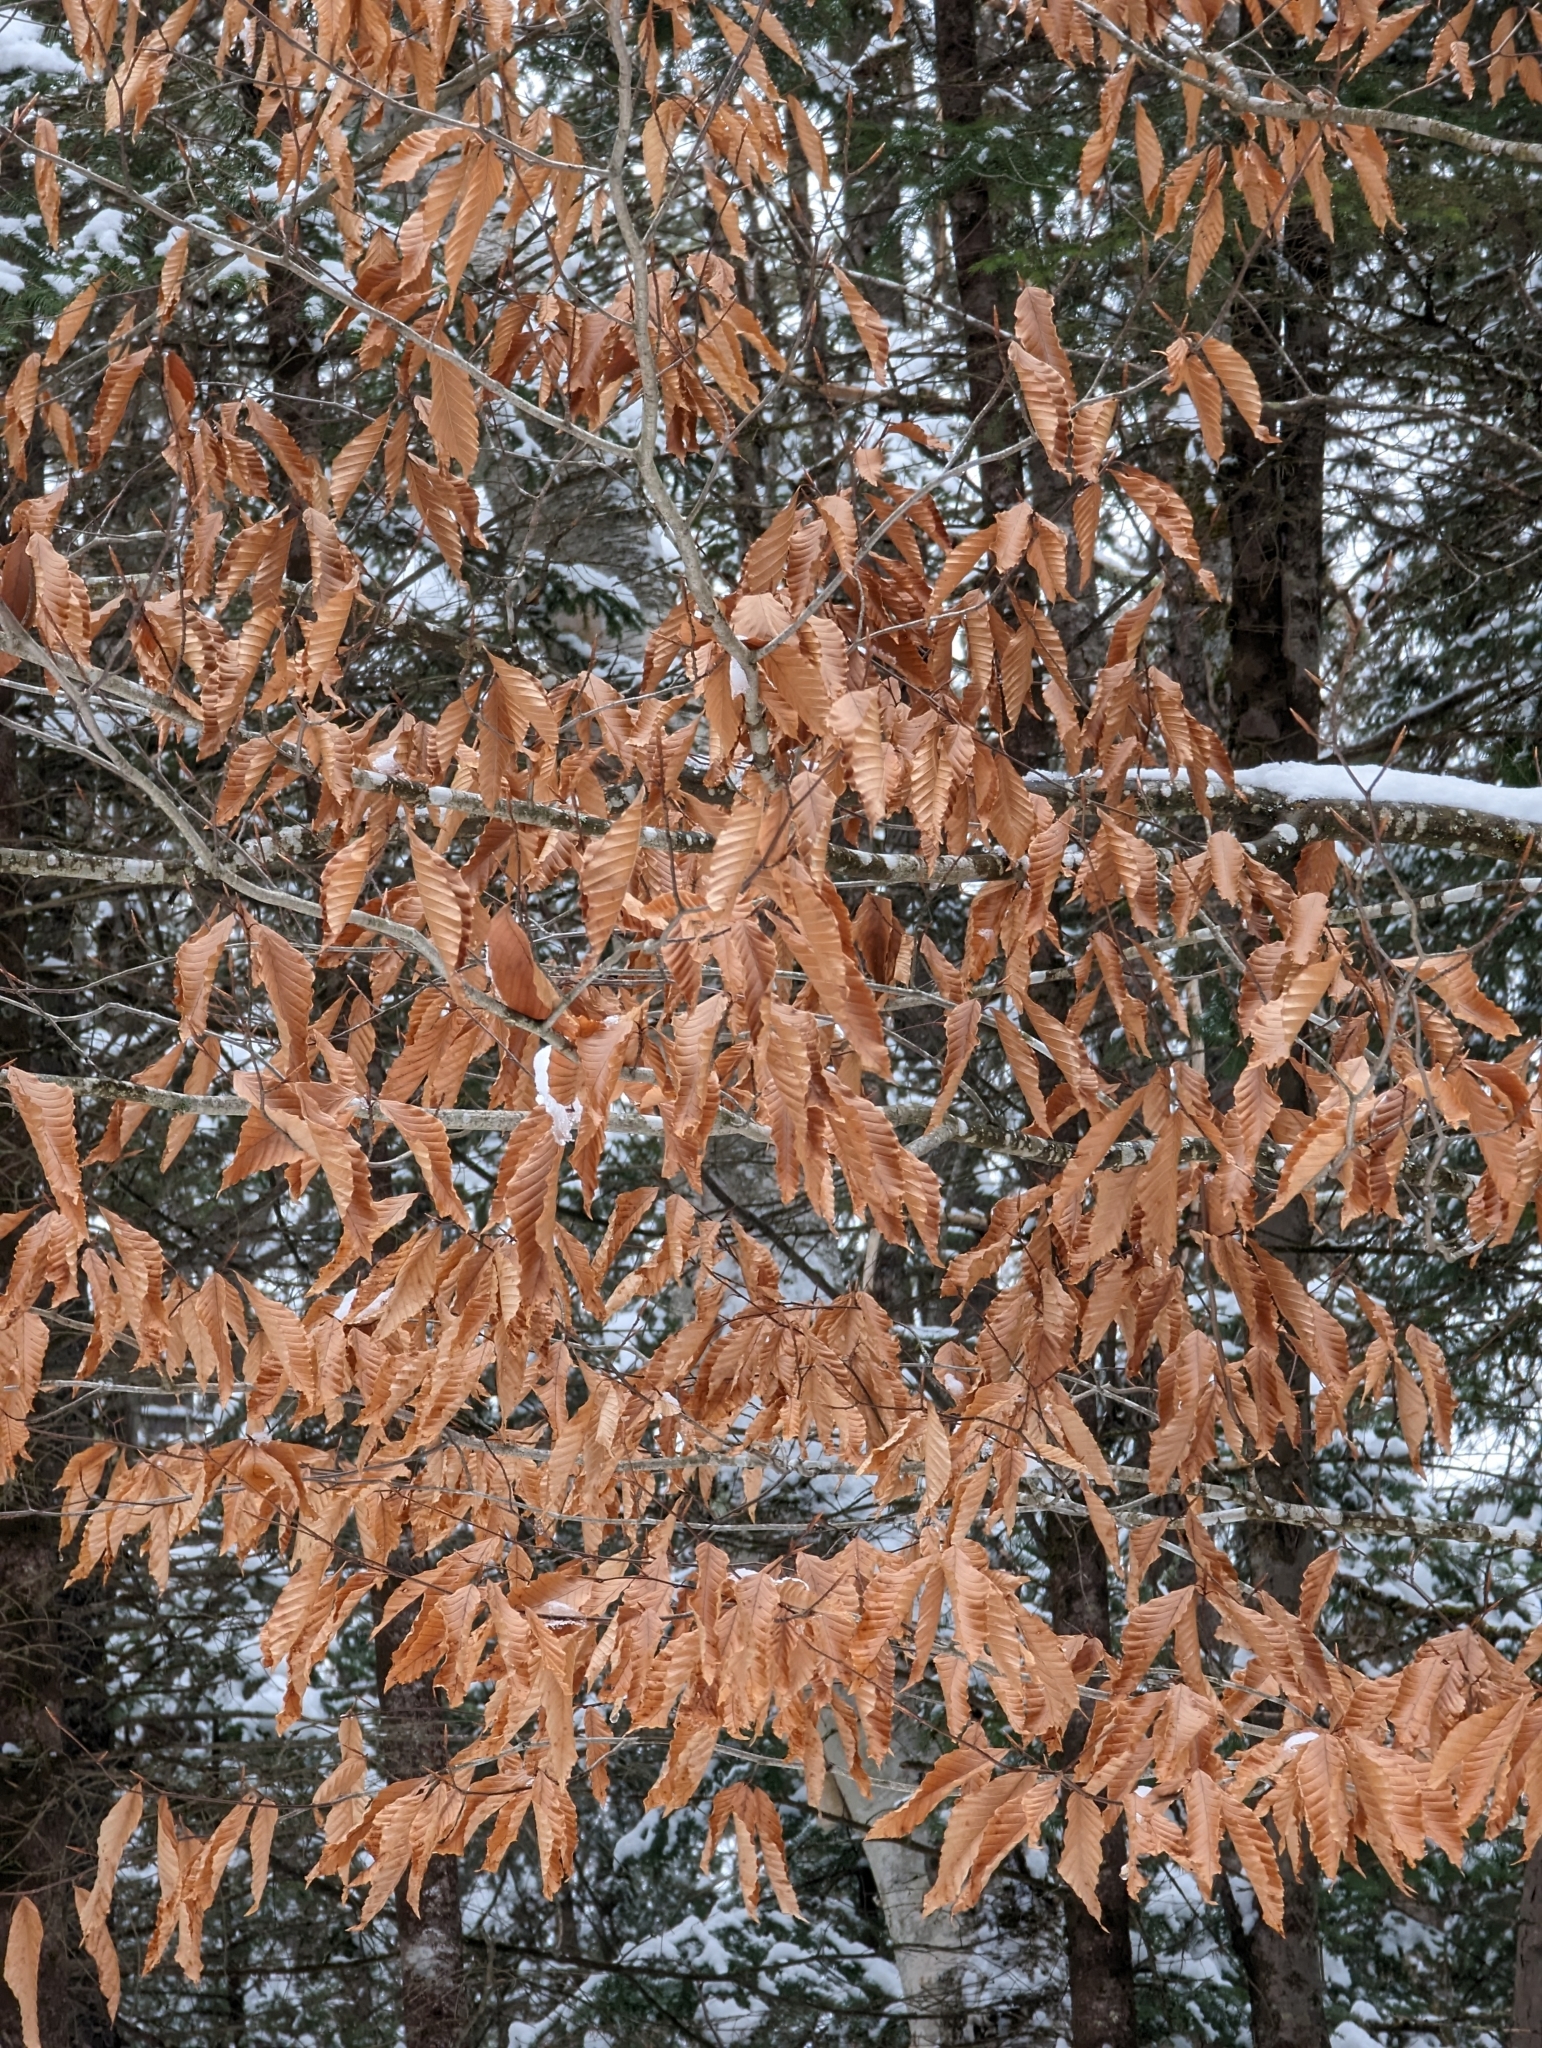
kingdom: Plantae
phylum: Tracheophyta
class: Magnoliopsida
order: Fagales
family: Fagaceae
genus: Fagus
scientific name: Fagus grandifolia
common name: American beech
